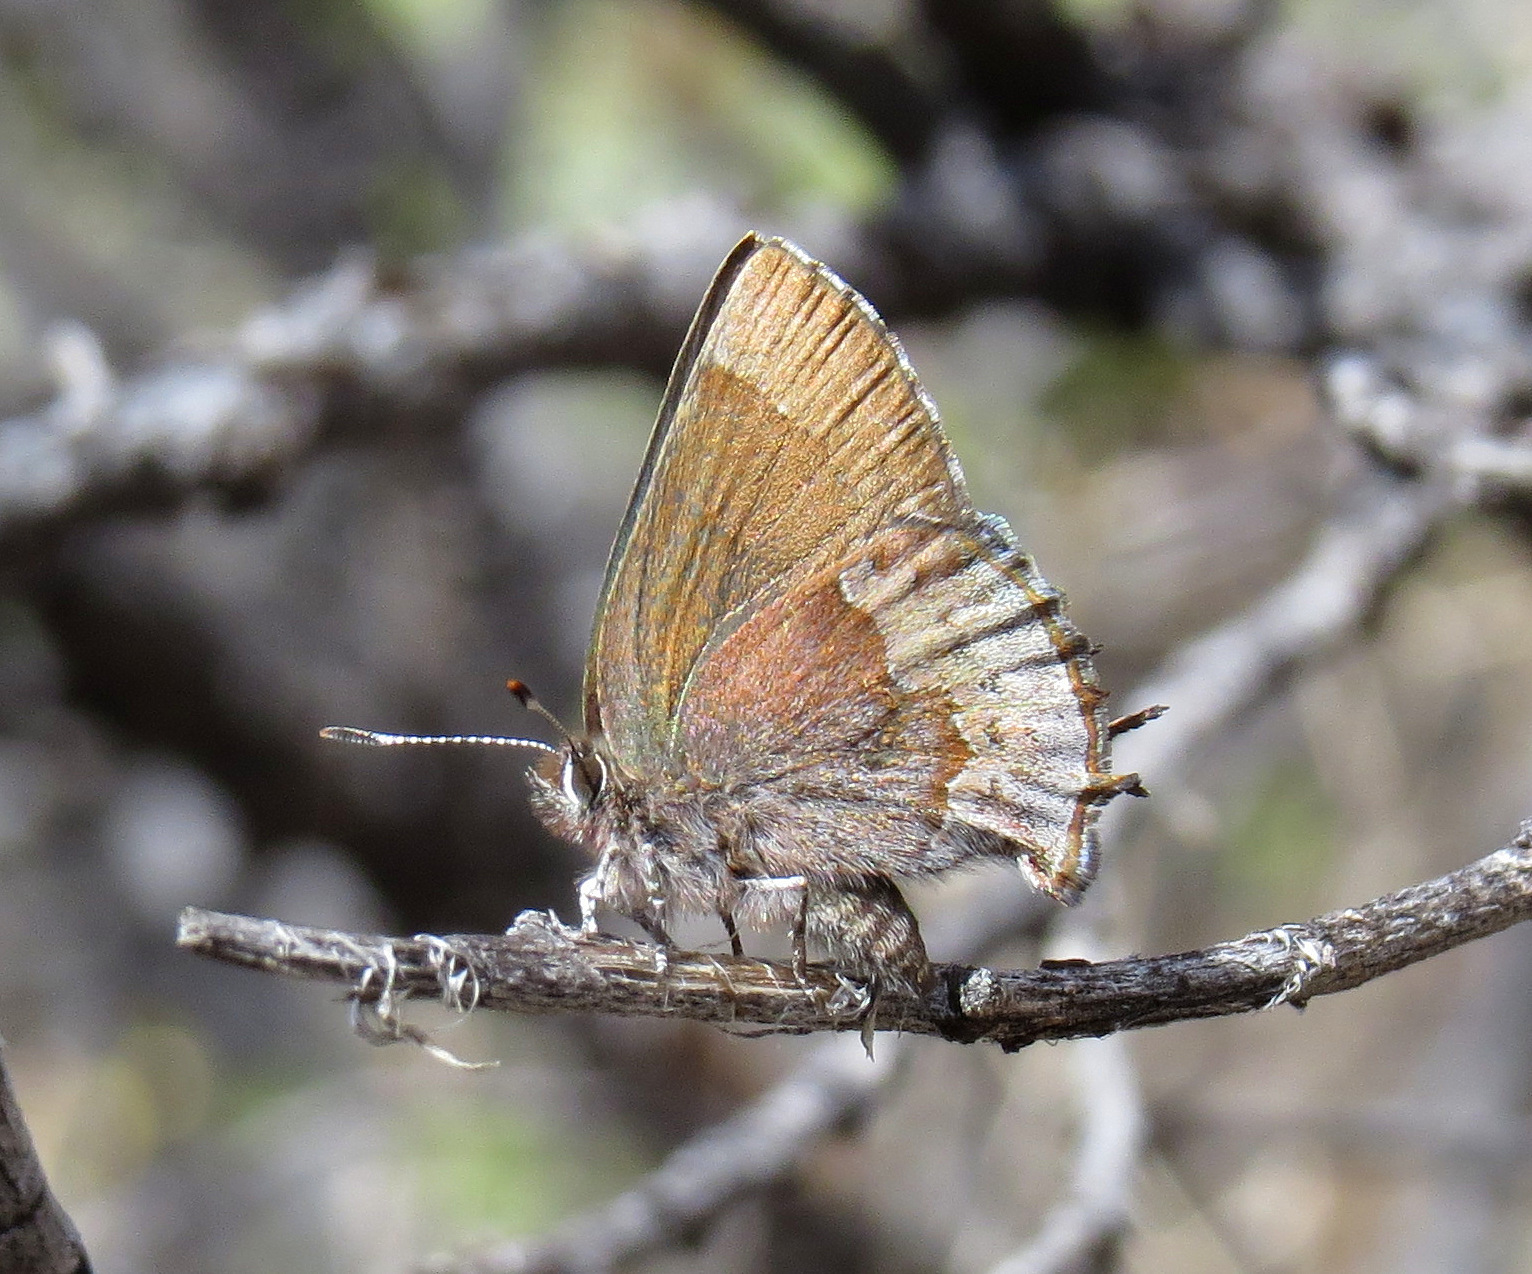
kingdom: Animalia
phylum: Arthropoda
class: Insecta
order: Lepidoptera
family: Lycaenidae
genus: Incisalia
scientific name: Incisalia henrici
